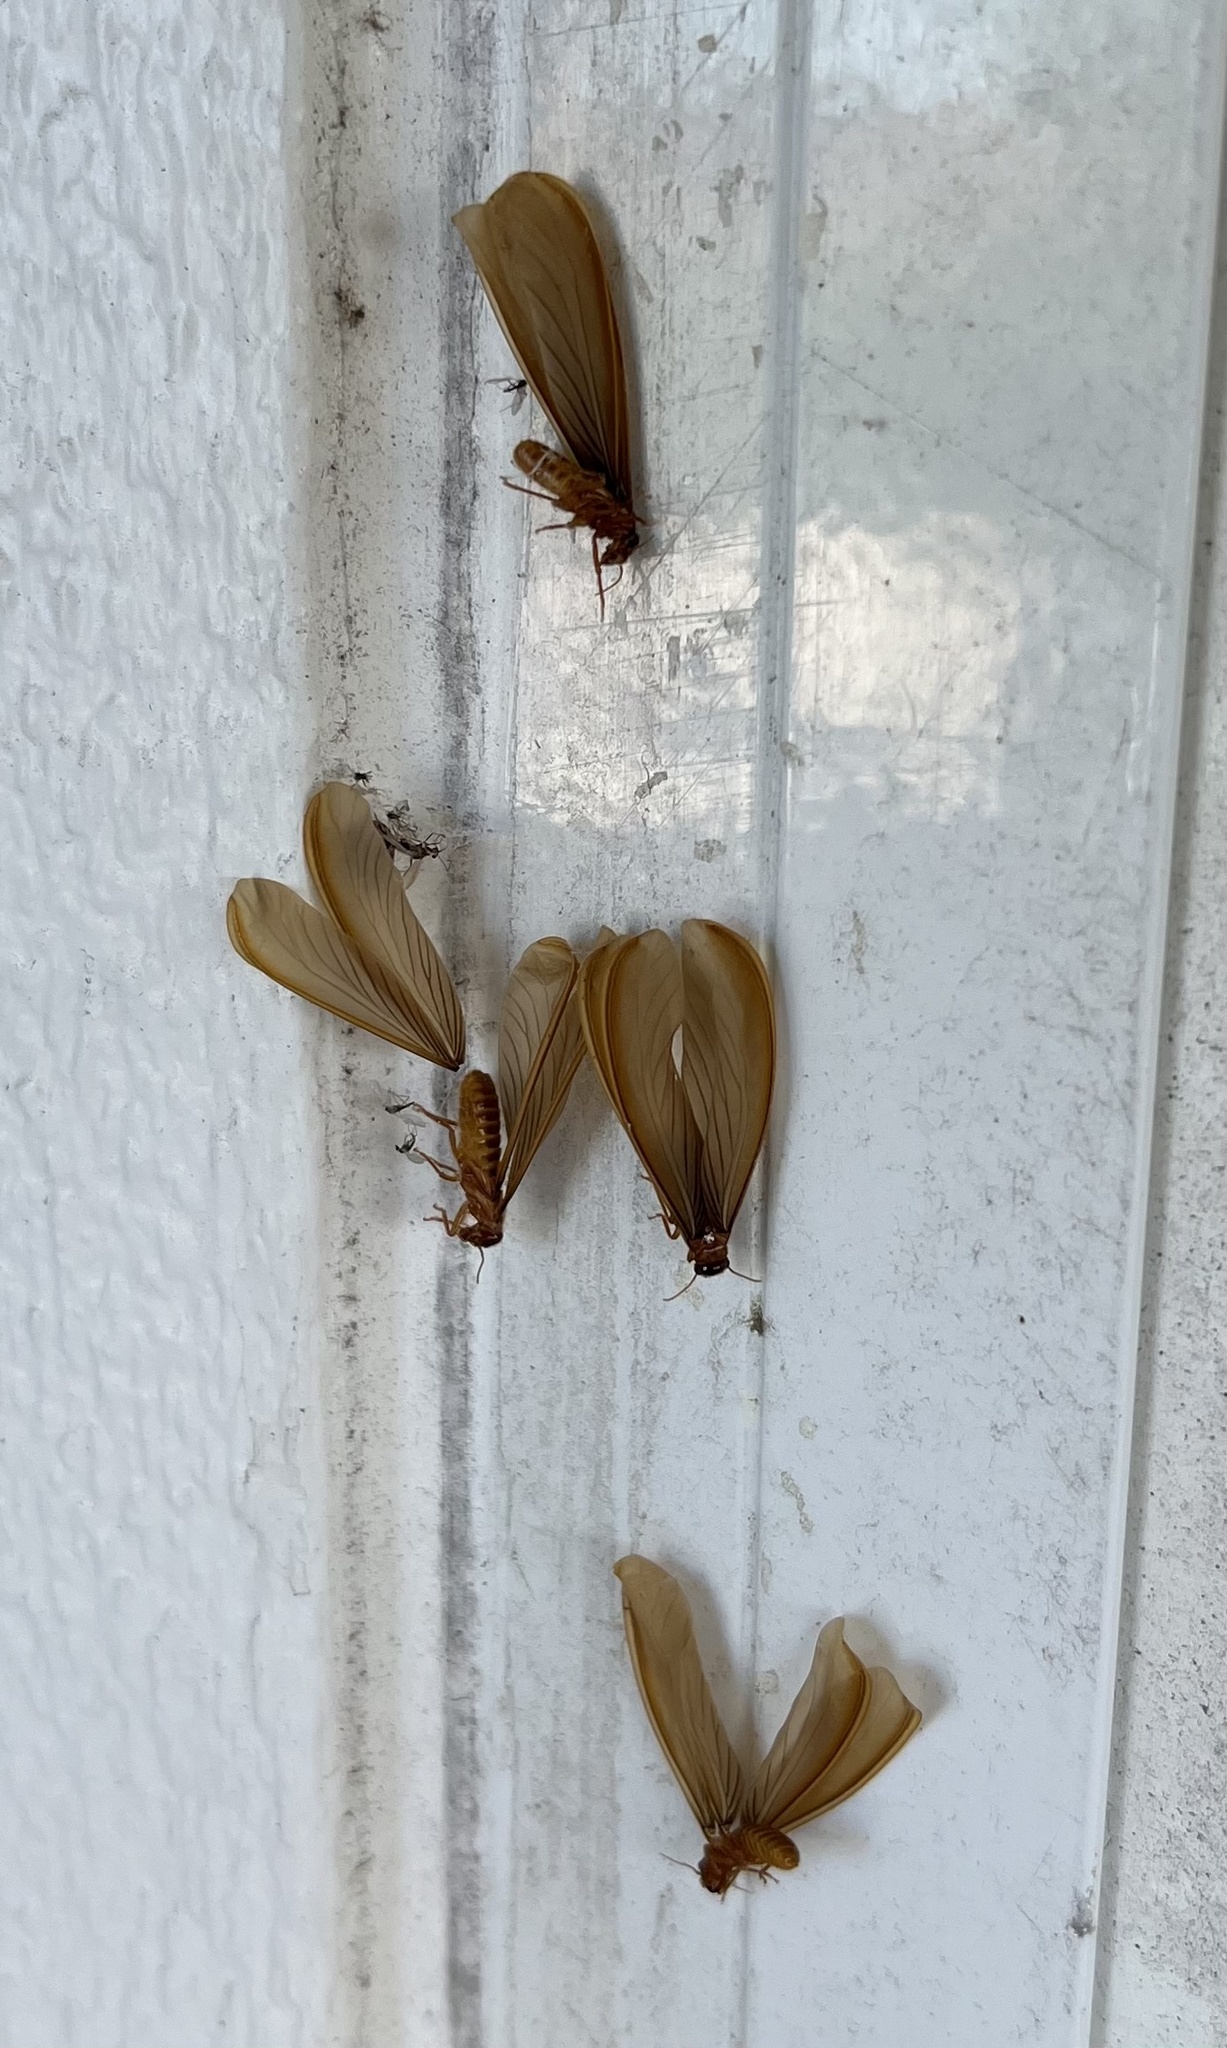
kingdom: Animalia
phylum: Arthropoda
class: Insecta
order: Blattodea
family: Termitidae
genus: Tenuirostritermes
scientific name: Tenuirostritermes cinereus
